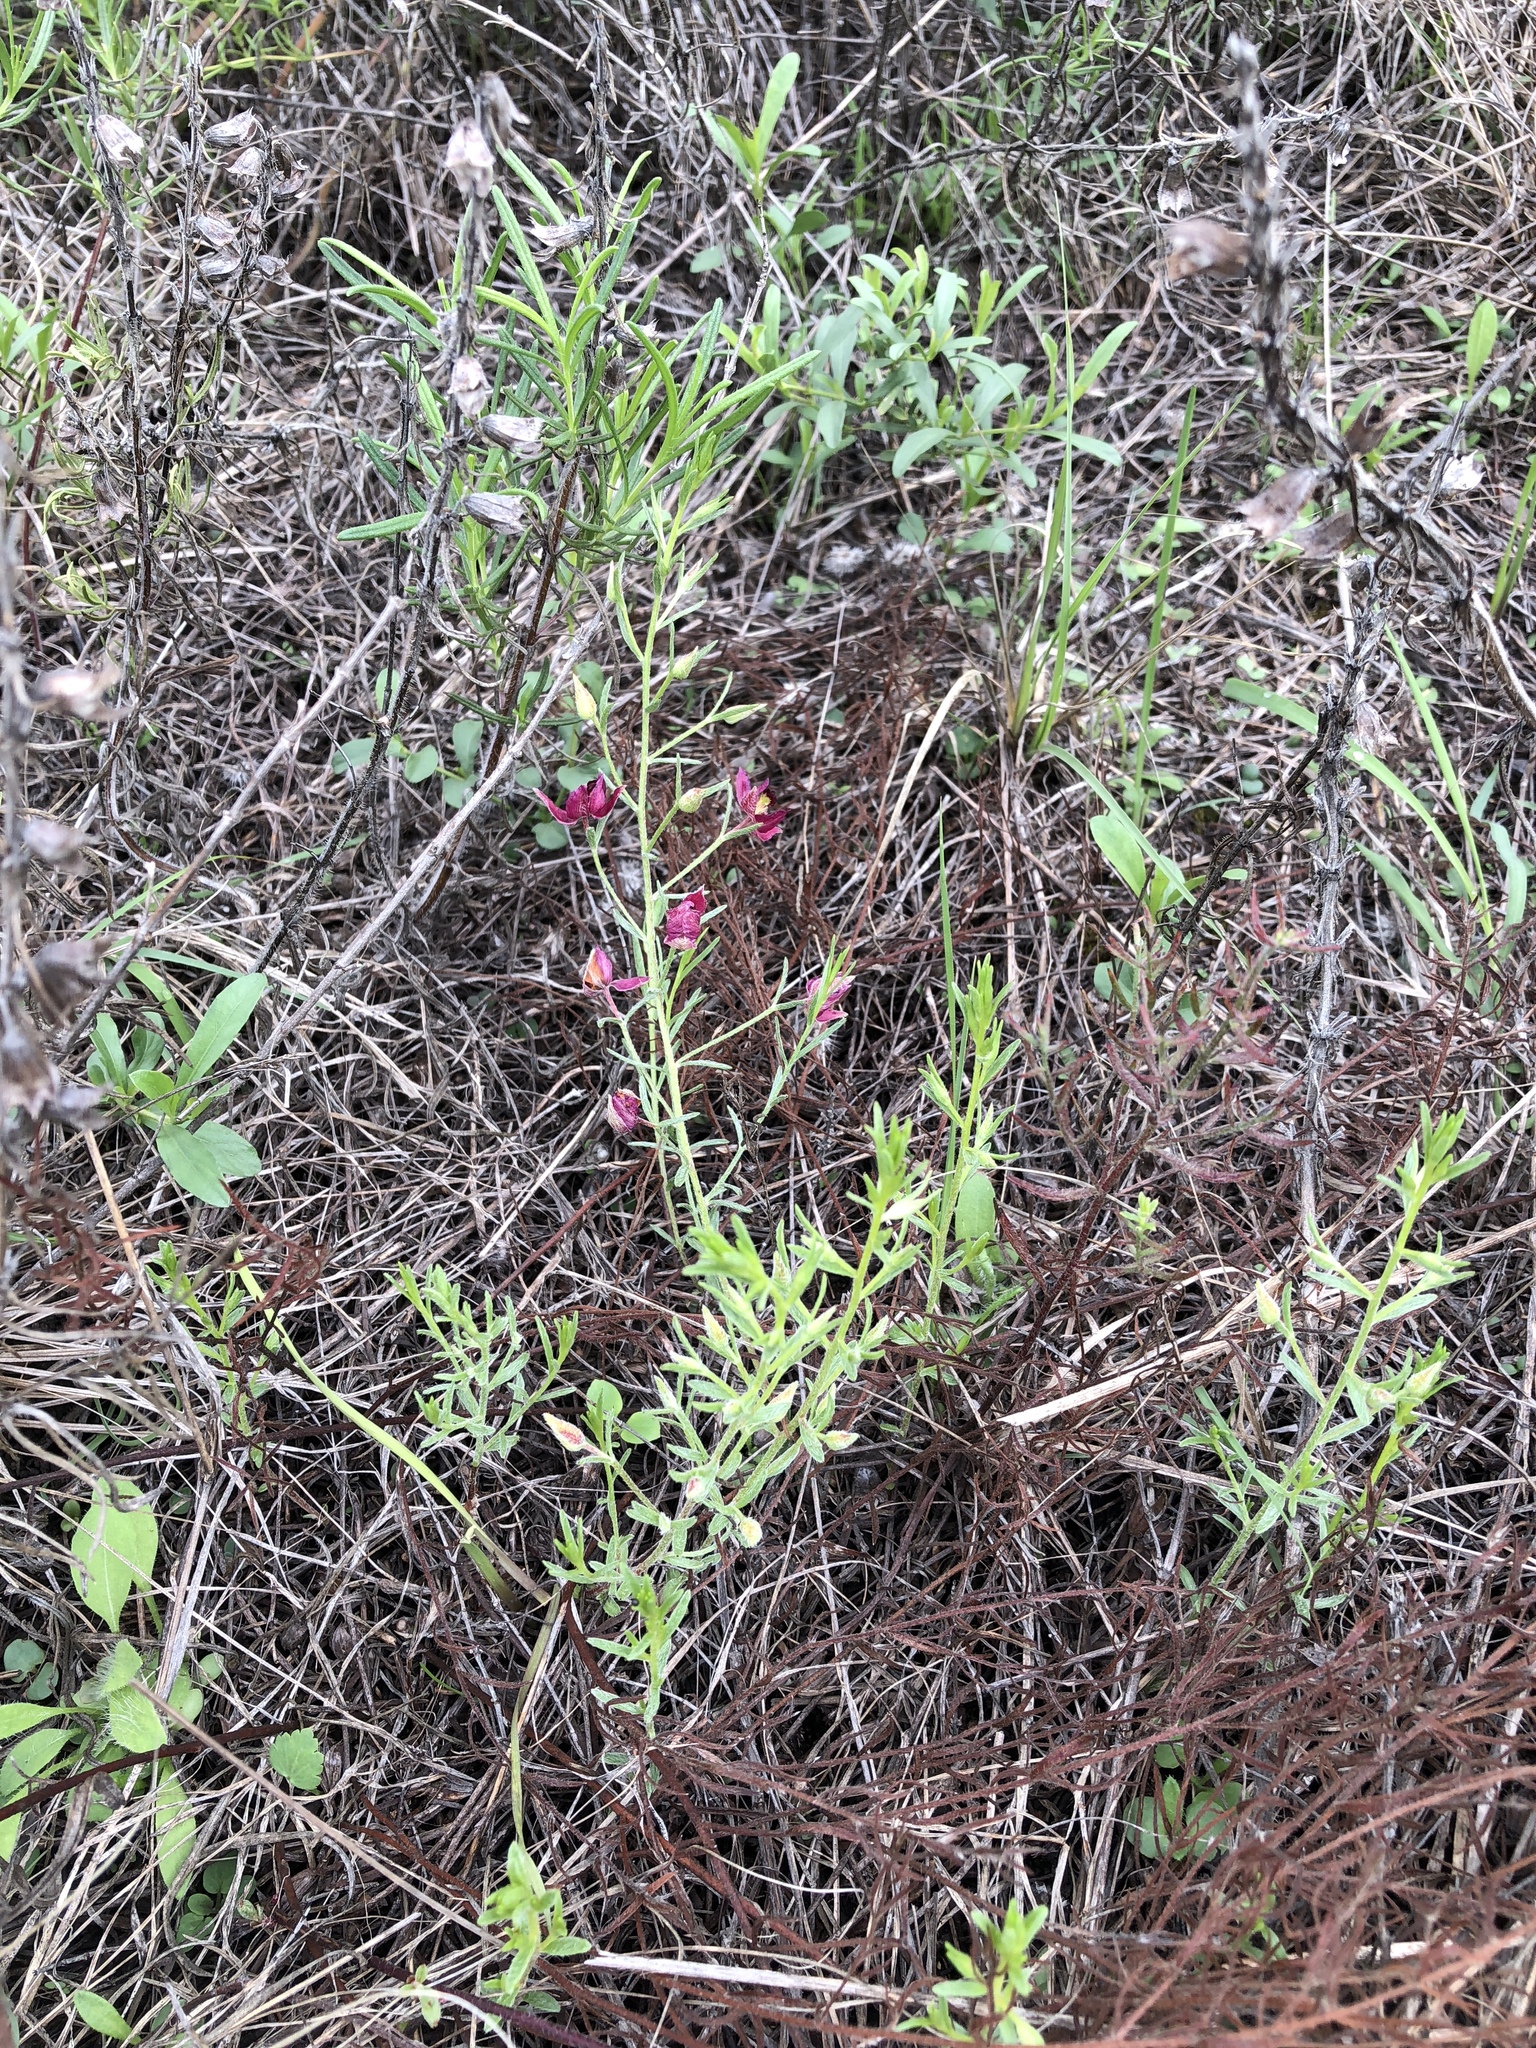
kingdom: Plantae
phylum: Tracheophyta
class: Magnoliopsida
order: Zygophyllales
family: Krameriaceae
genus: Krameria
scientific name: Krameria lanceolata
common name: Ratany
